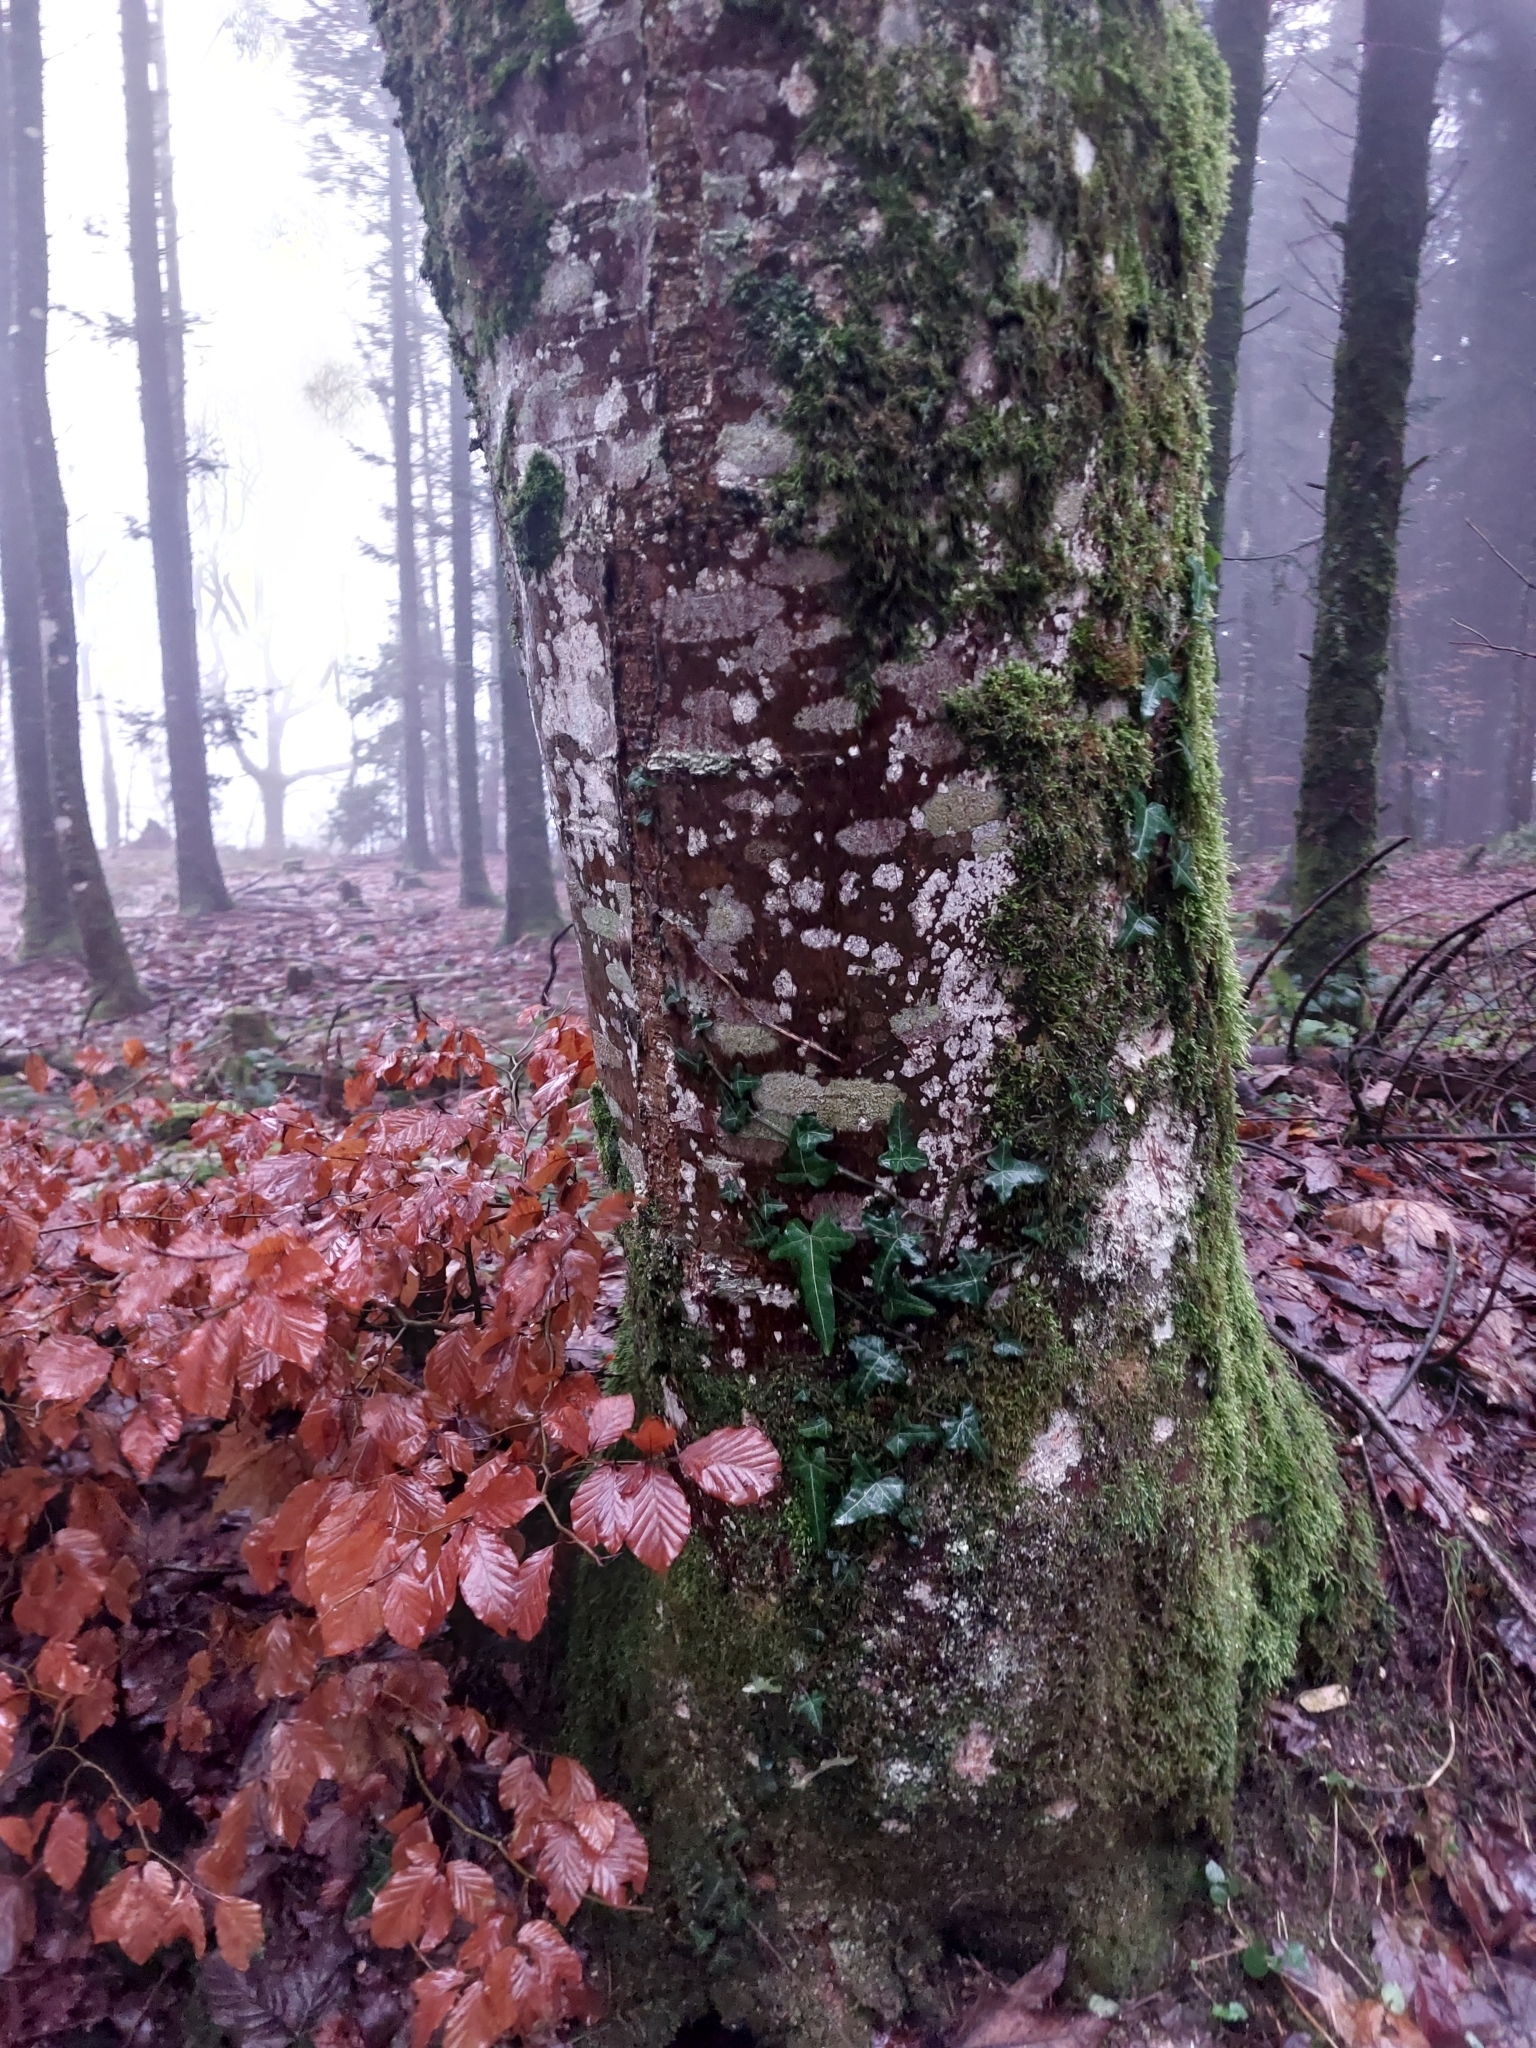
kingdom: Plantae
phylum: Tracheophyta
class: Magnoliopsida
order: Apiales
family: Araliaceae
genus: Hedera
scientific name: Hedera helix
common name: Ivy
